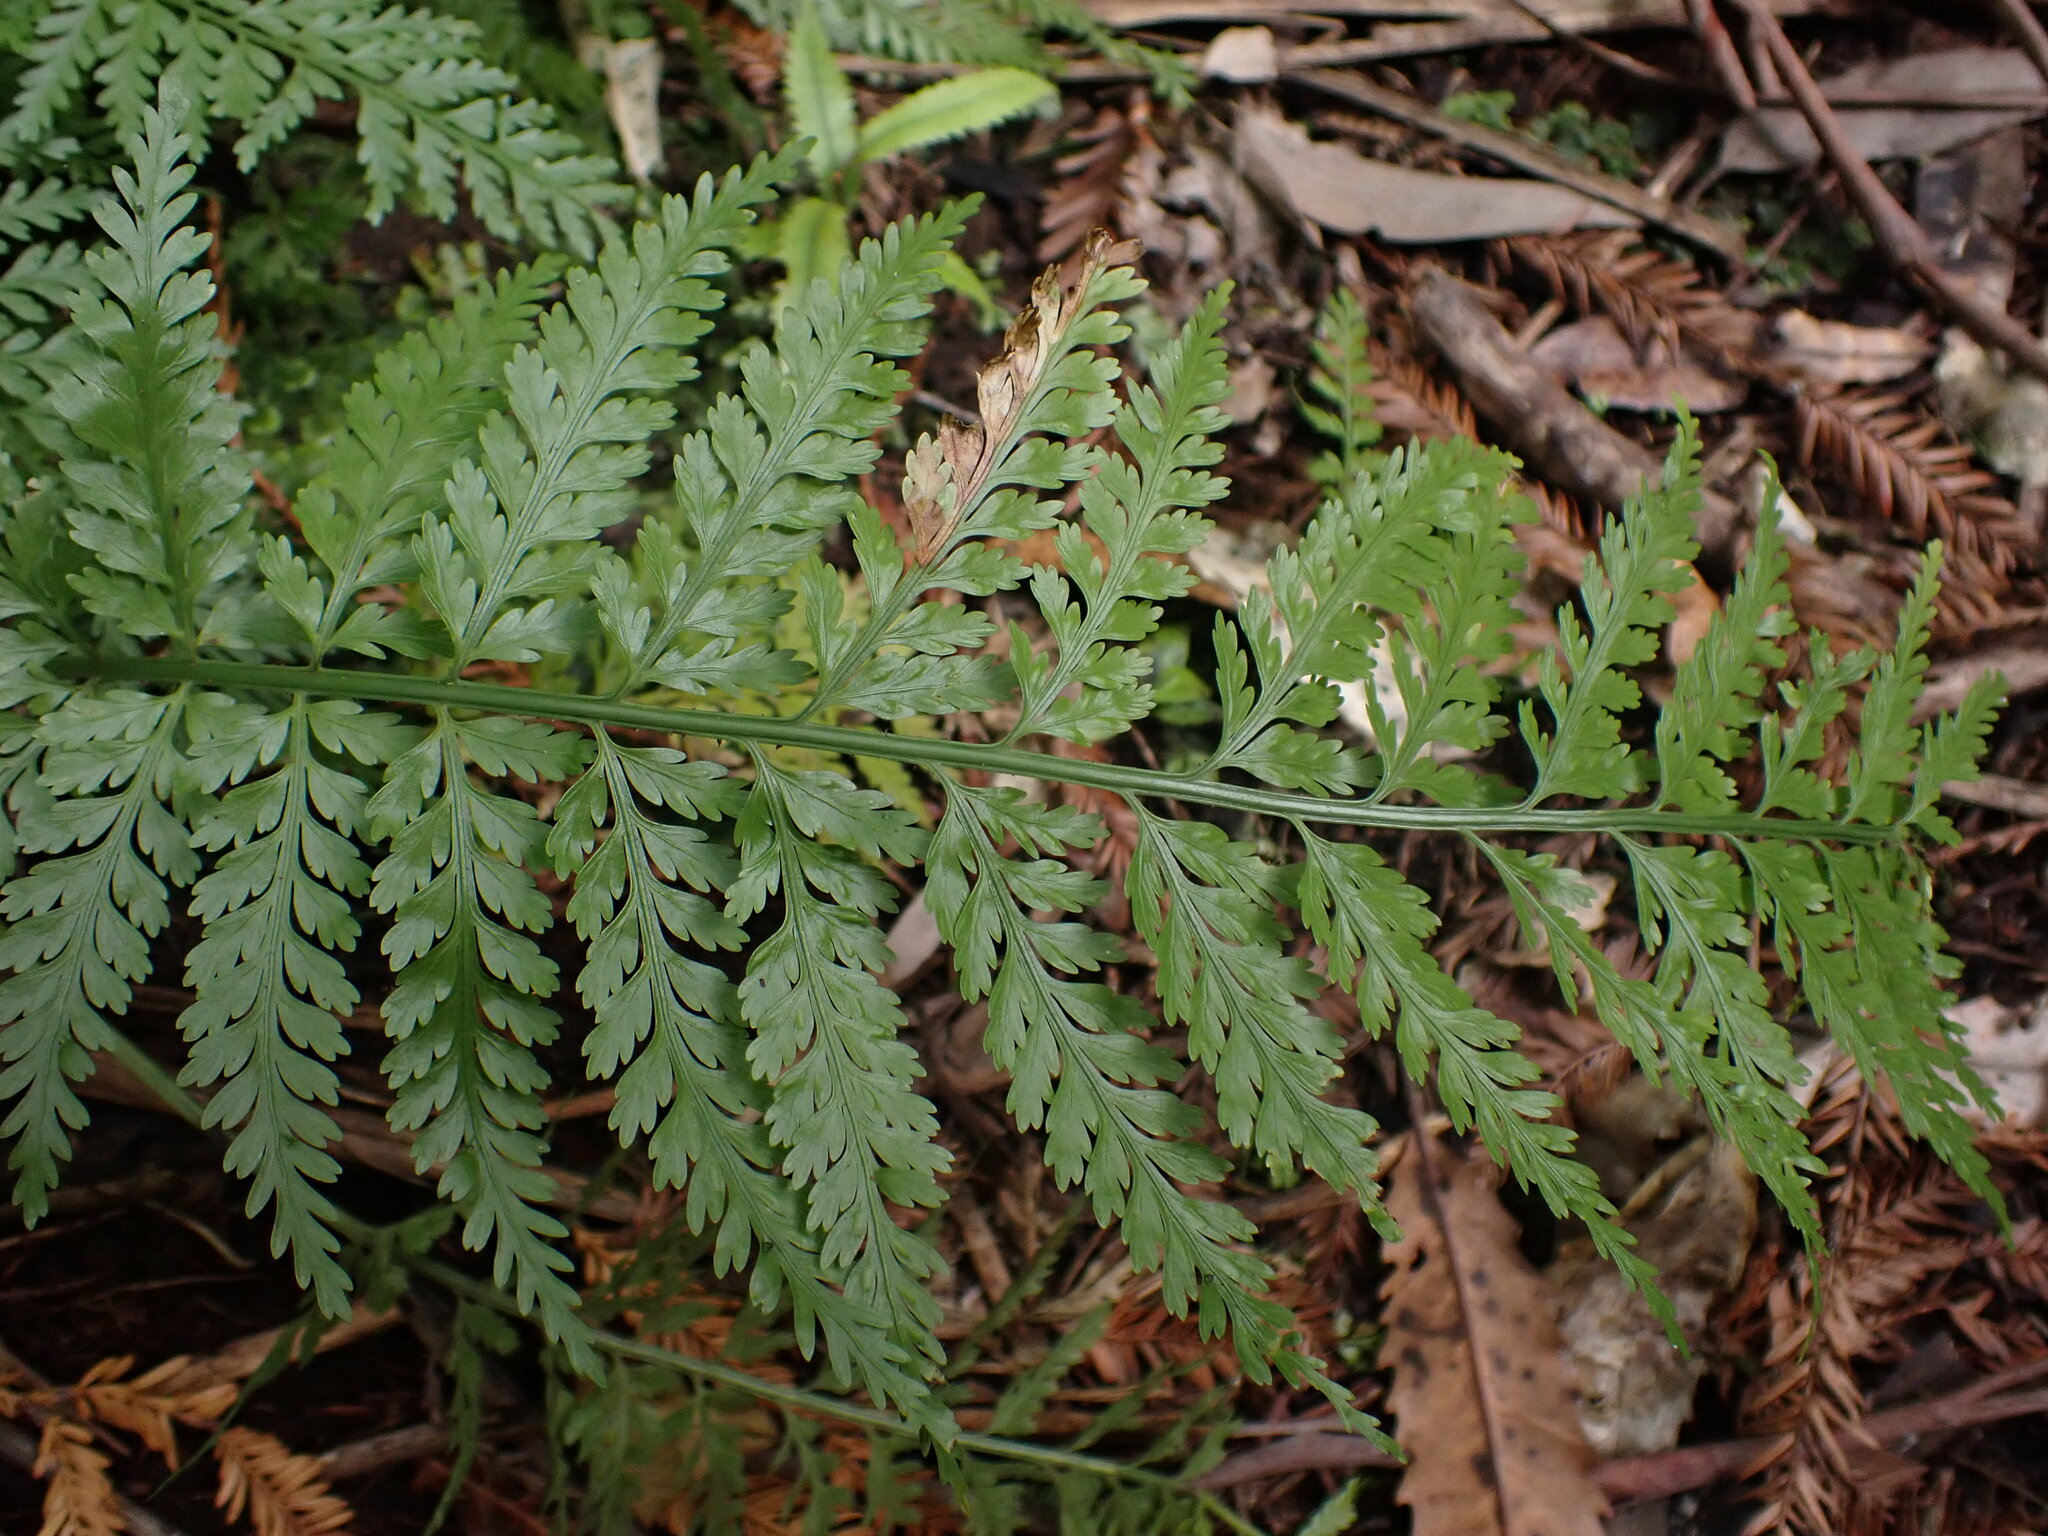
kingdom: Plantae
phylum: Tracheophyta
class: Polypodiopsida
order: Polypodiales
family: Aspleniaceae
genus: Asplenium
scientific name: Asplenium bulbiferum
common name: Mother fern
